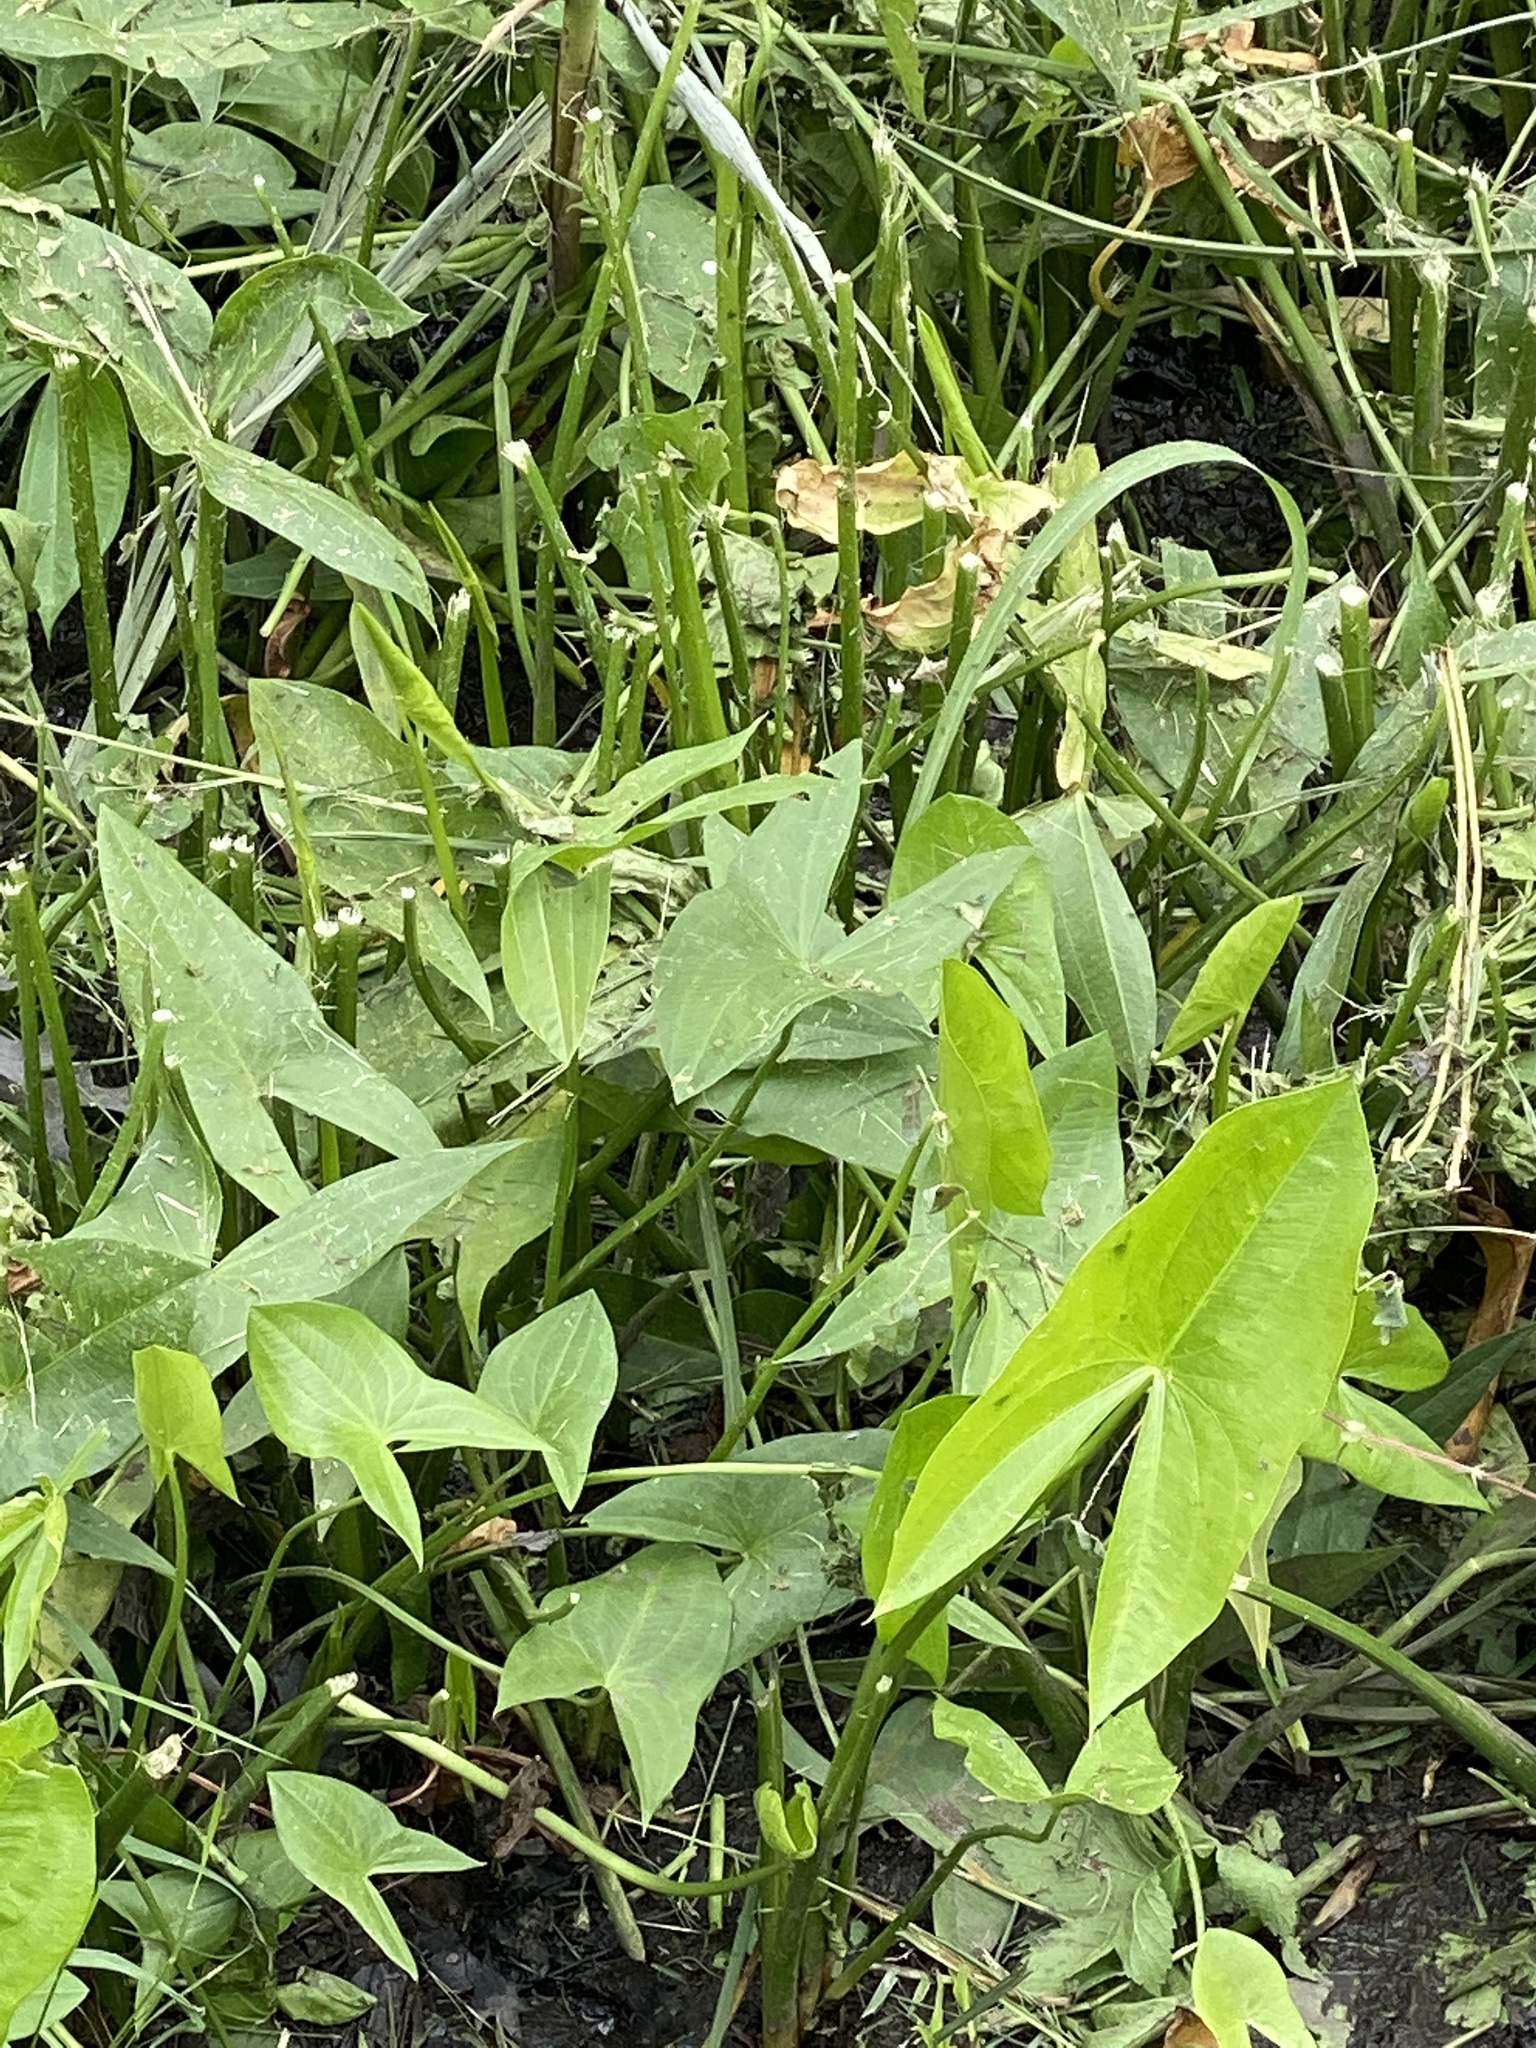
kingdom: Plantae
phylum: Tracheophyta
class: Liliopsida
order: Alismatales
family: Alismataceae
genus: Sagittaria
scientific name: Sagittaria latifolia
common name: Duck-potato
